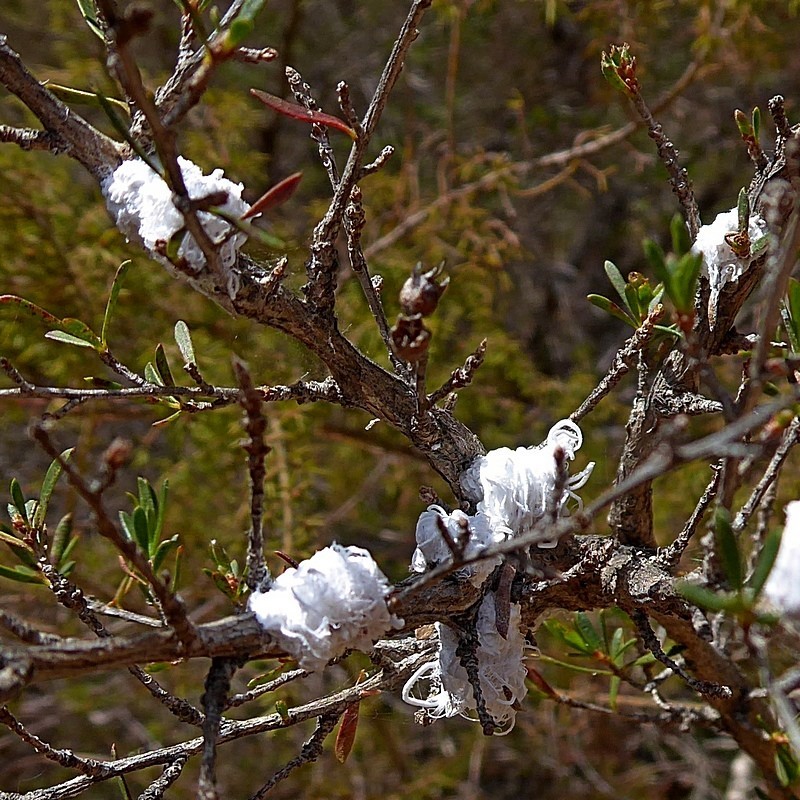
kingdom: Animalia
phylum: Arthropoda
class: Insecta
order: Hemiptera
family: Asterolecaniidae
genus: Callococcus
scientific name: Callococcus
